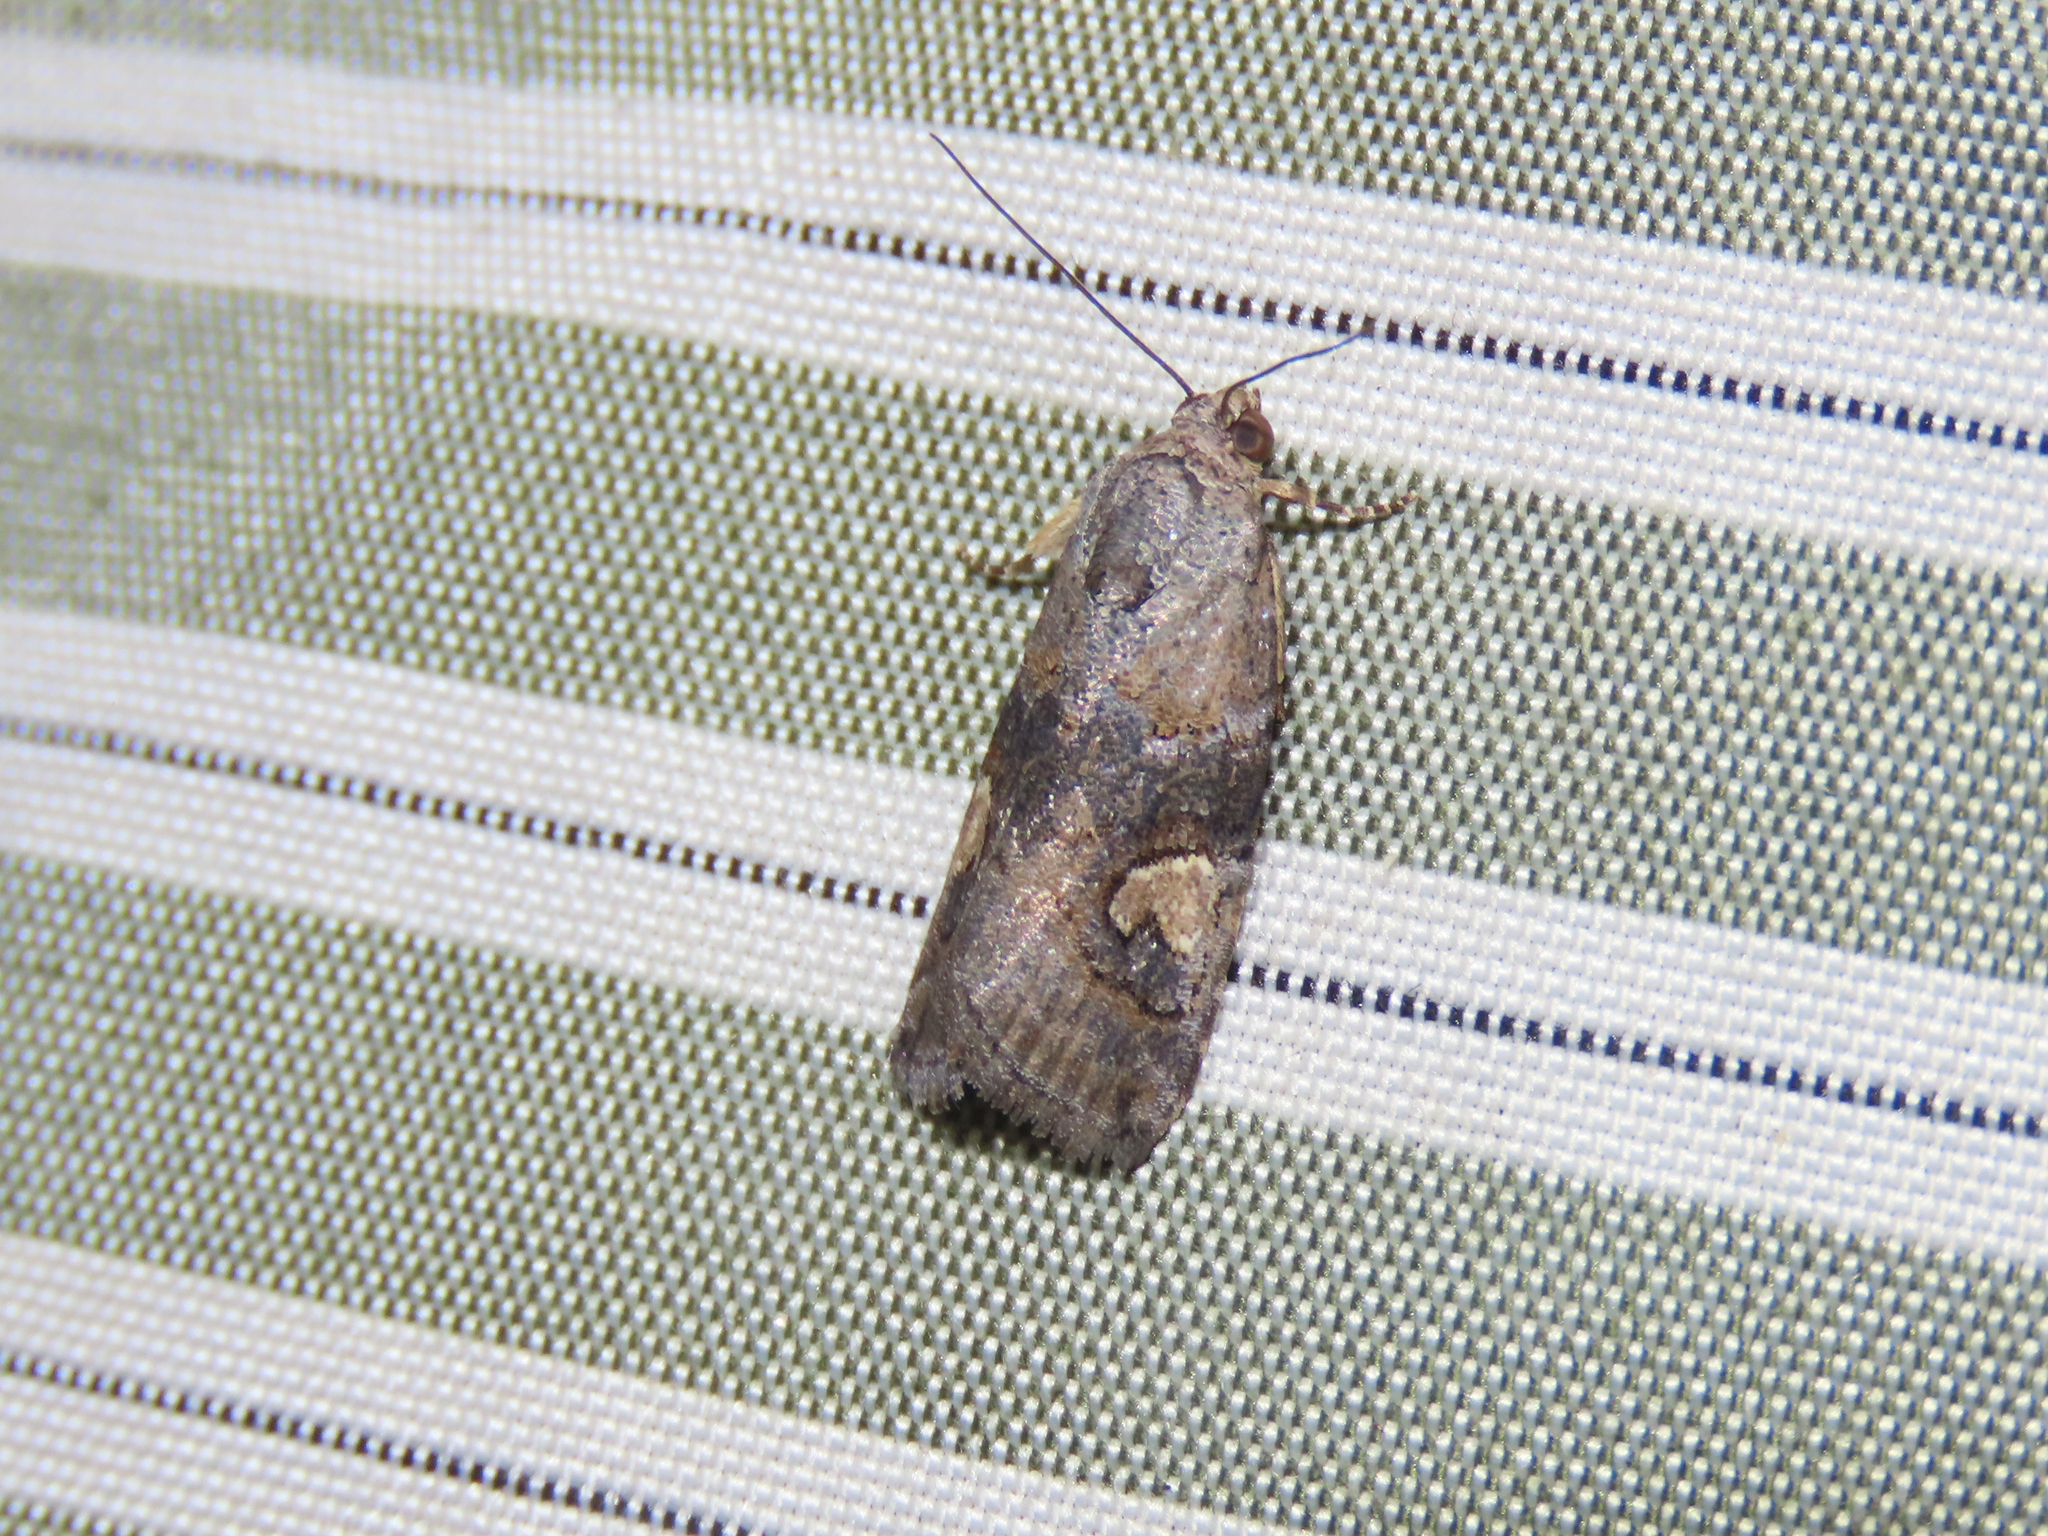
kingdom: Animalia
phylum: Arthropoda
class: Insecta
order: Lepidoptera
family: Noctuidae
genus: Metaponpneumata
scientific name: Metaponpneumata rogenhoferi
